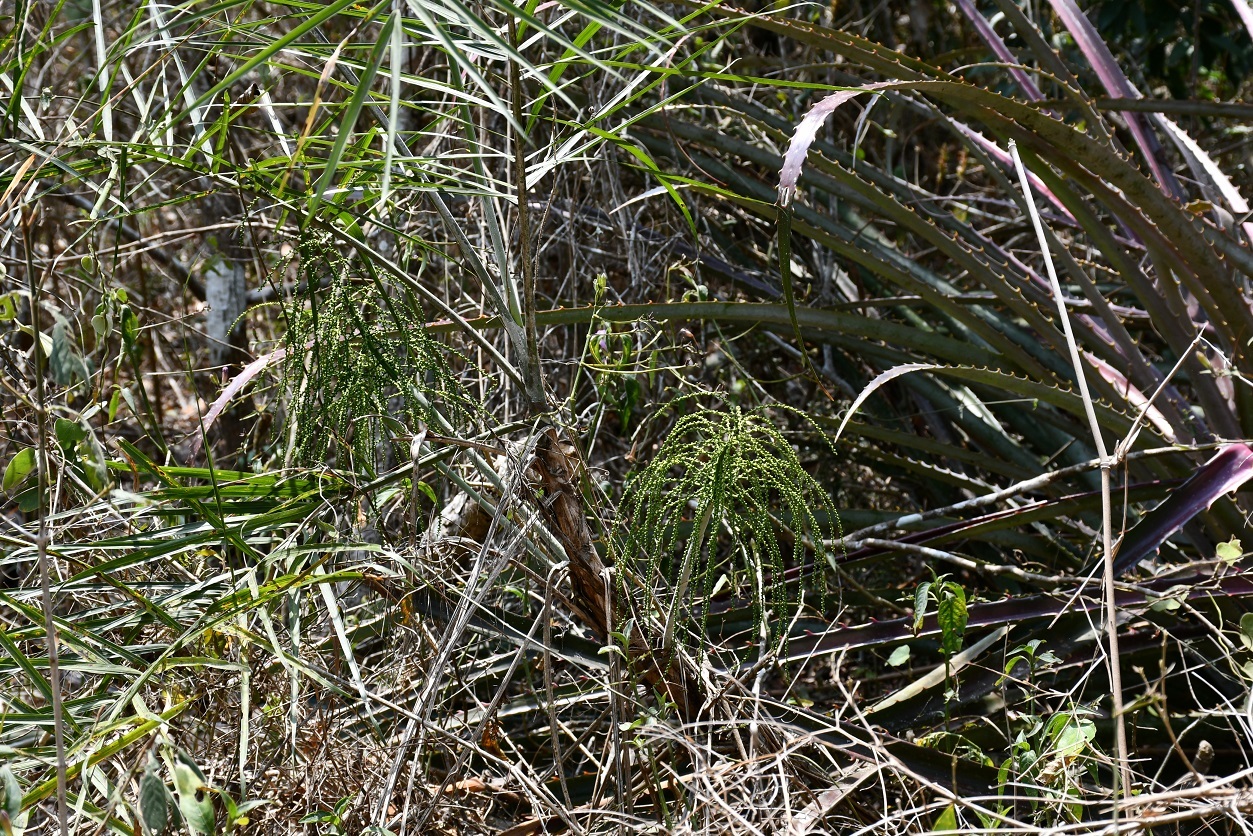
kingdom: Plantae
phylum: Tracheophyta
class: Liliopsida
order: Arecales
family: Arecaceae
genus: Chamaedorea
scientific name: Chamaedorea glaucifolia
